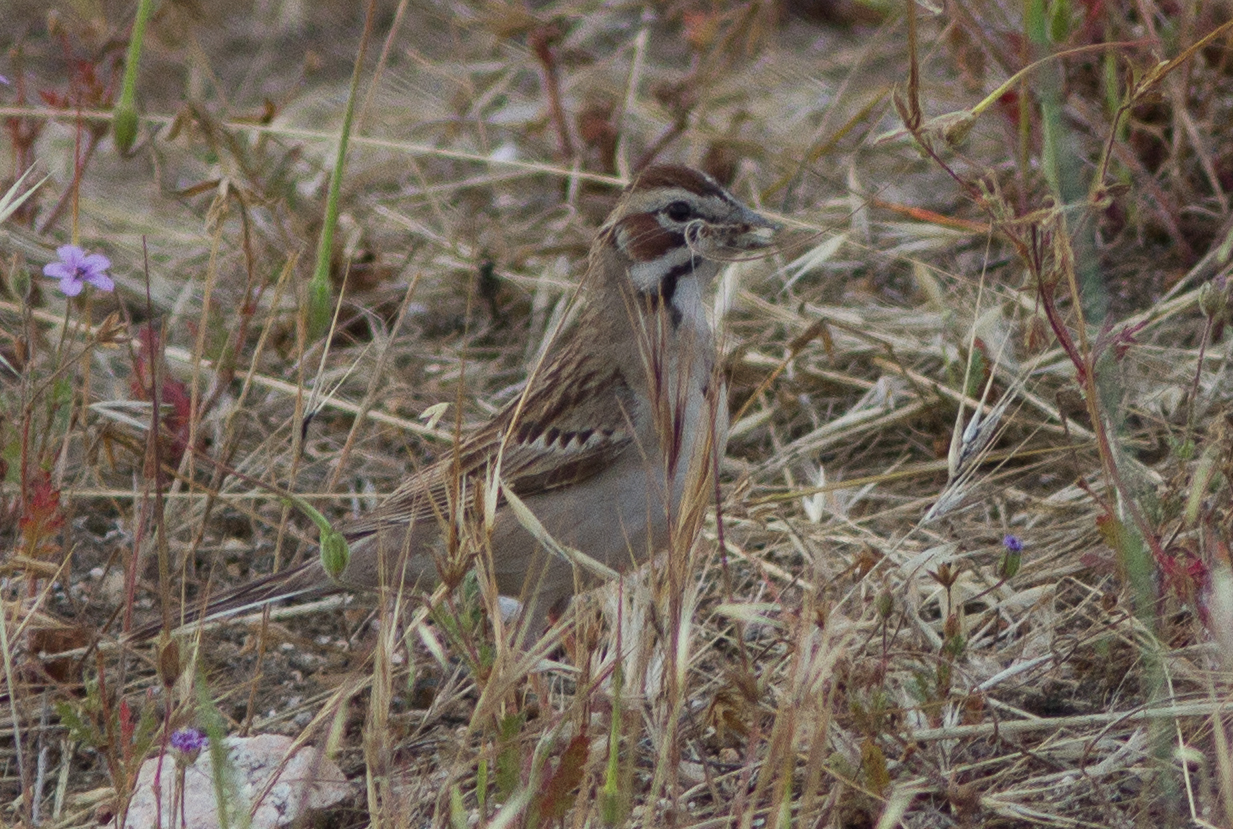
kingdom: Animalia
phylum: Chordata
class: Aves
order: Passeriformes
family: Passerellidae
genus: Chondestes
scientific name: Chondestes grammacus
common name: Lark sparrow
